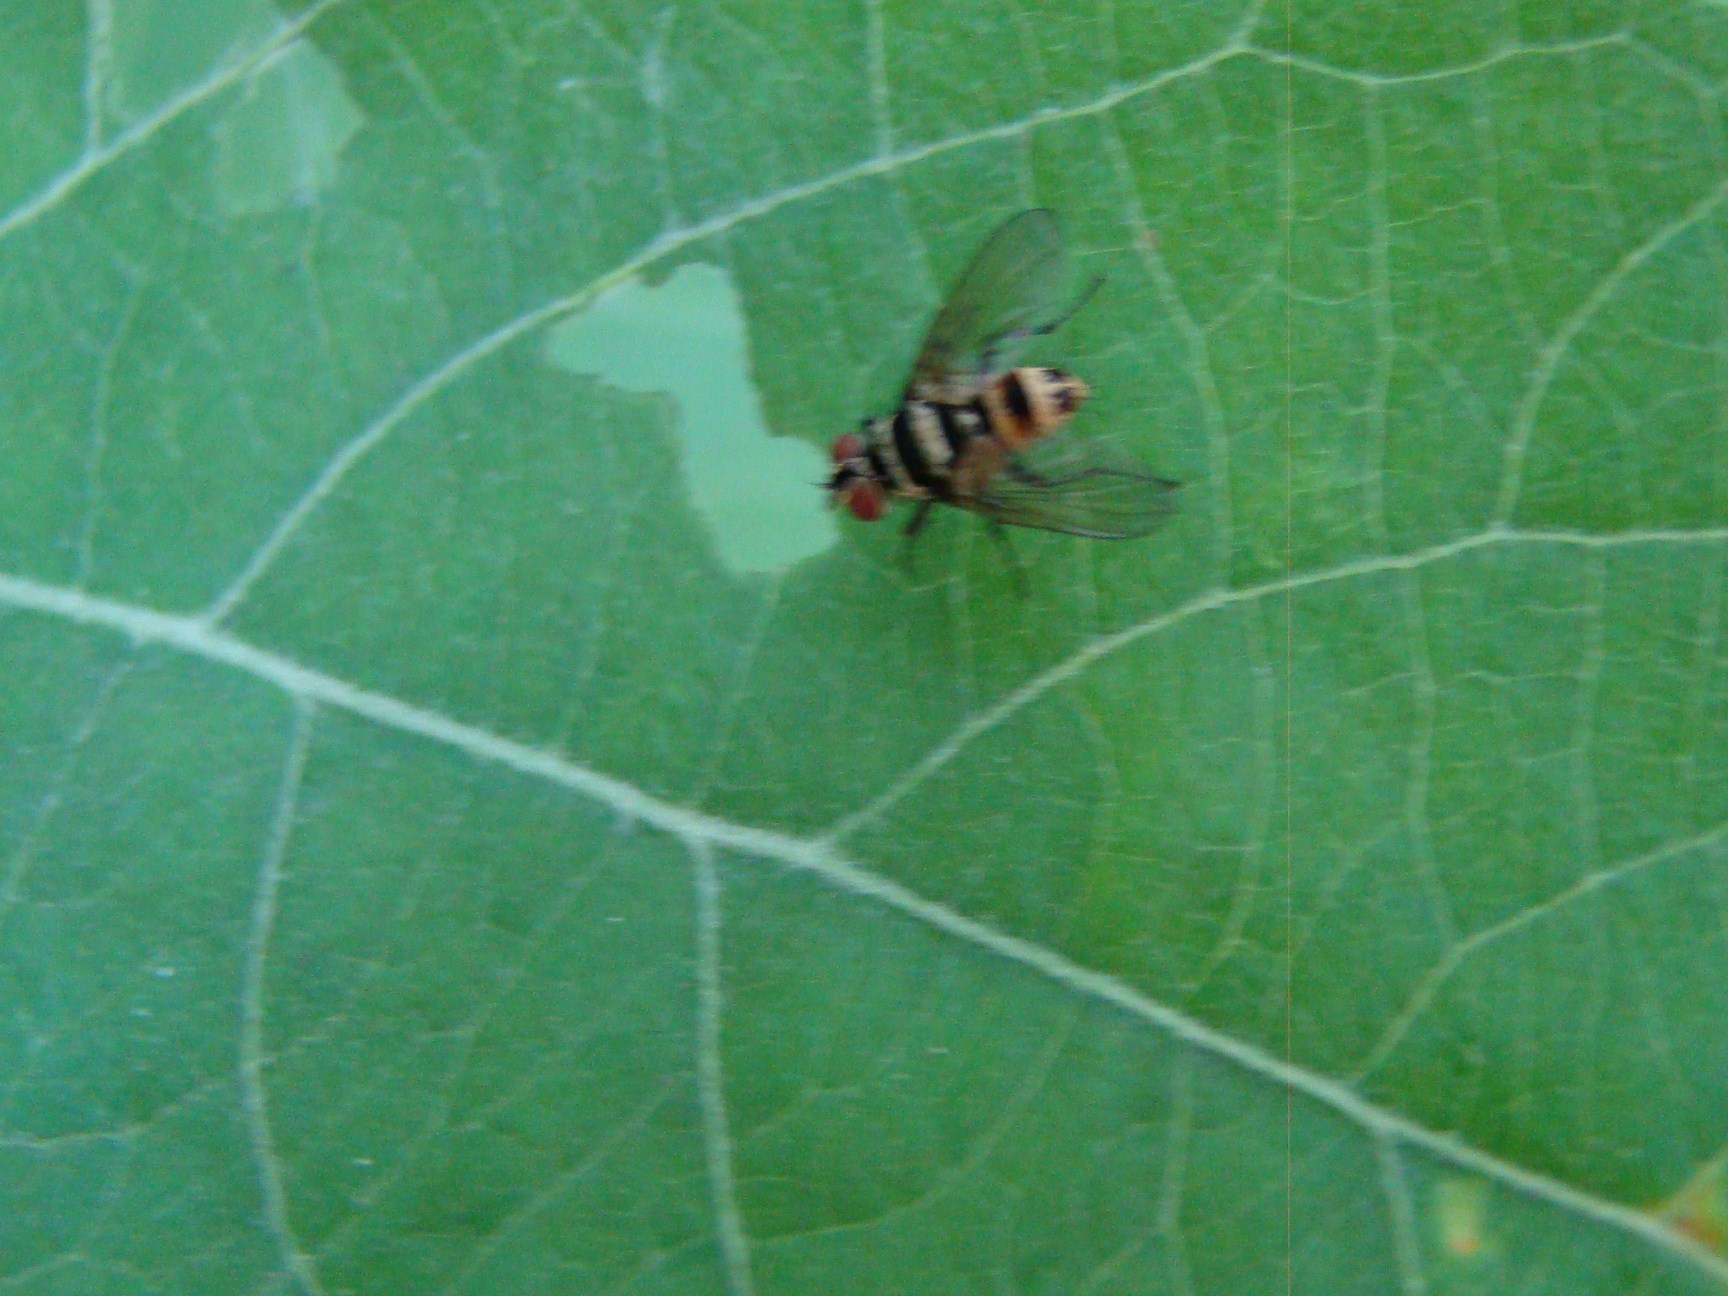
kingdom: Animalia
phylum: Arthropoda
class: Insecta
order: Diptera
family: Tachinidae
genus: Trigonospila
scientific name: Trigonospila brevifacies
